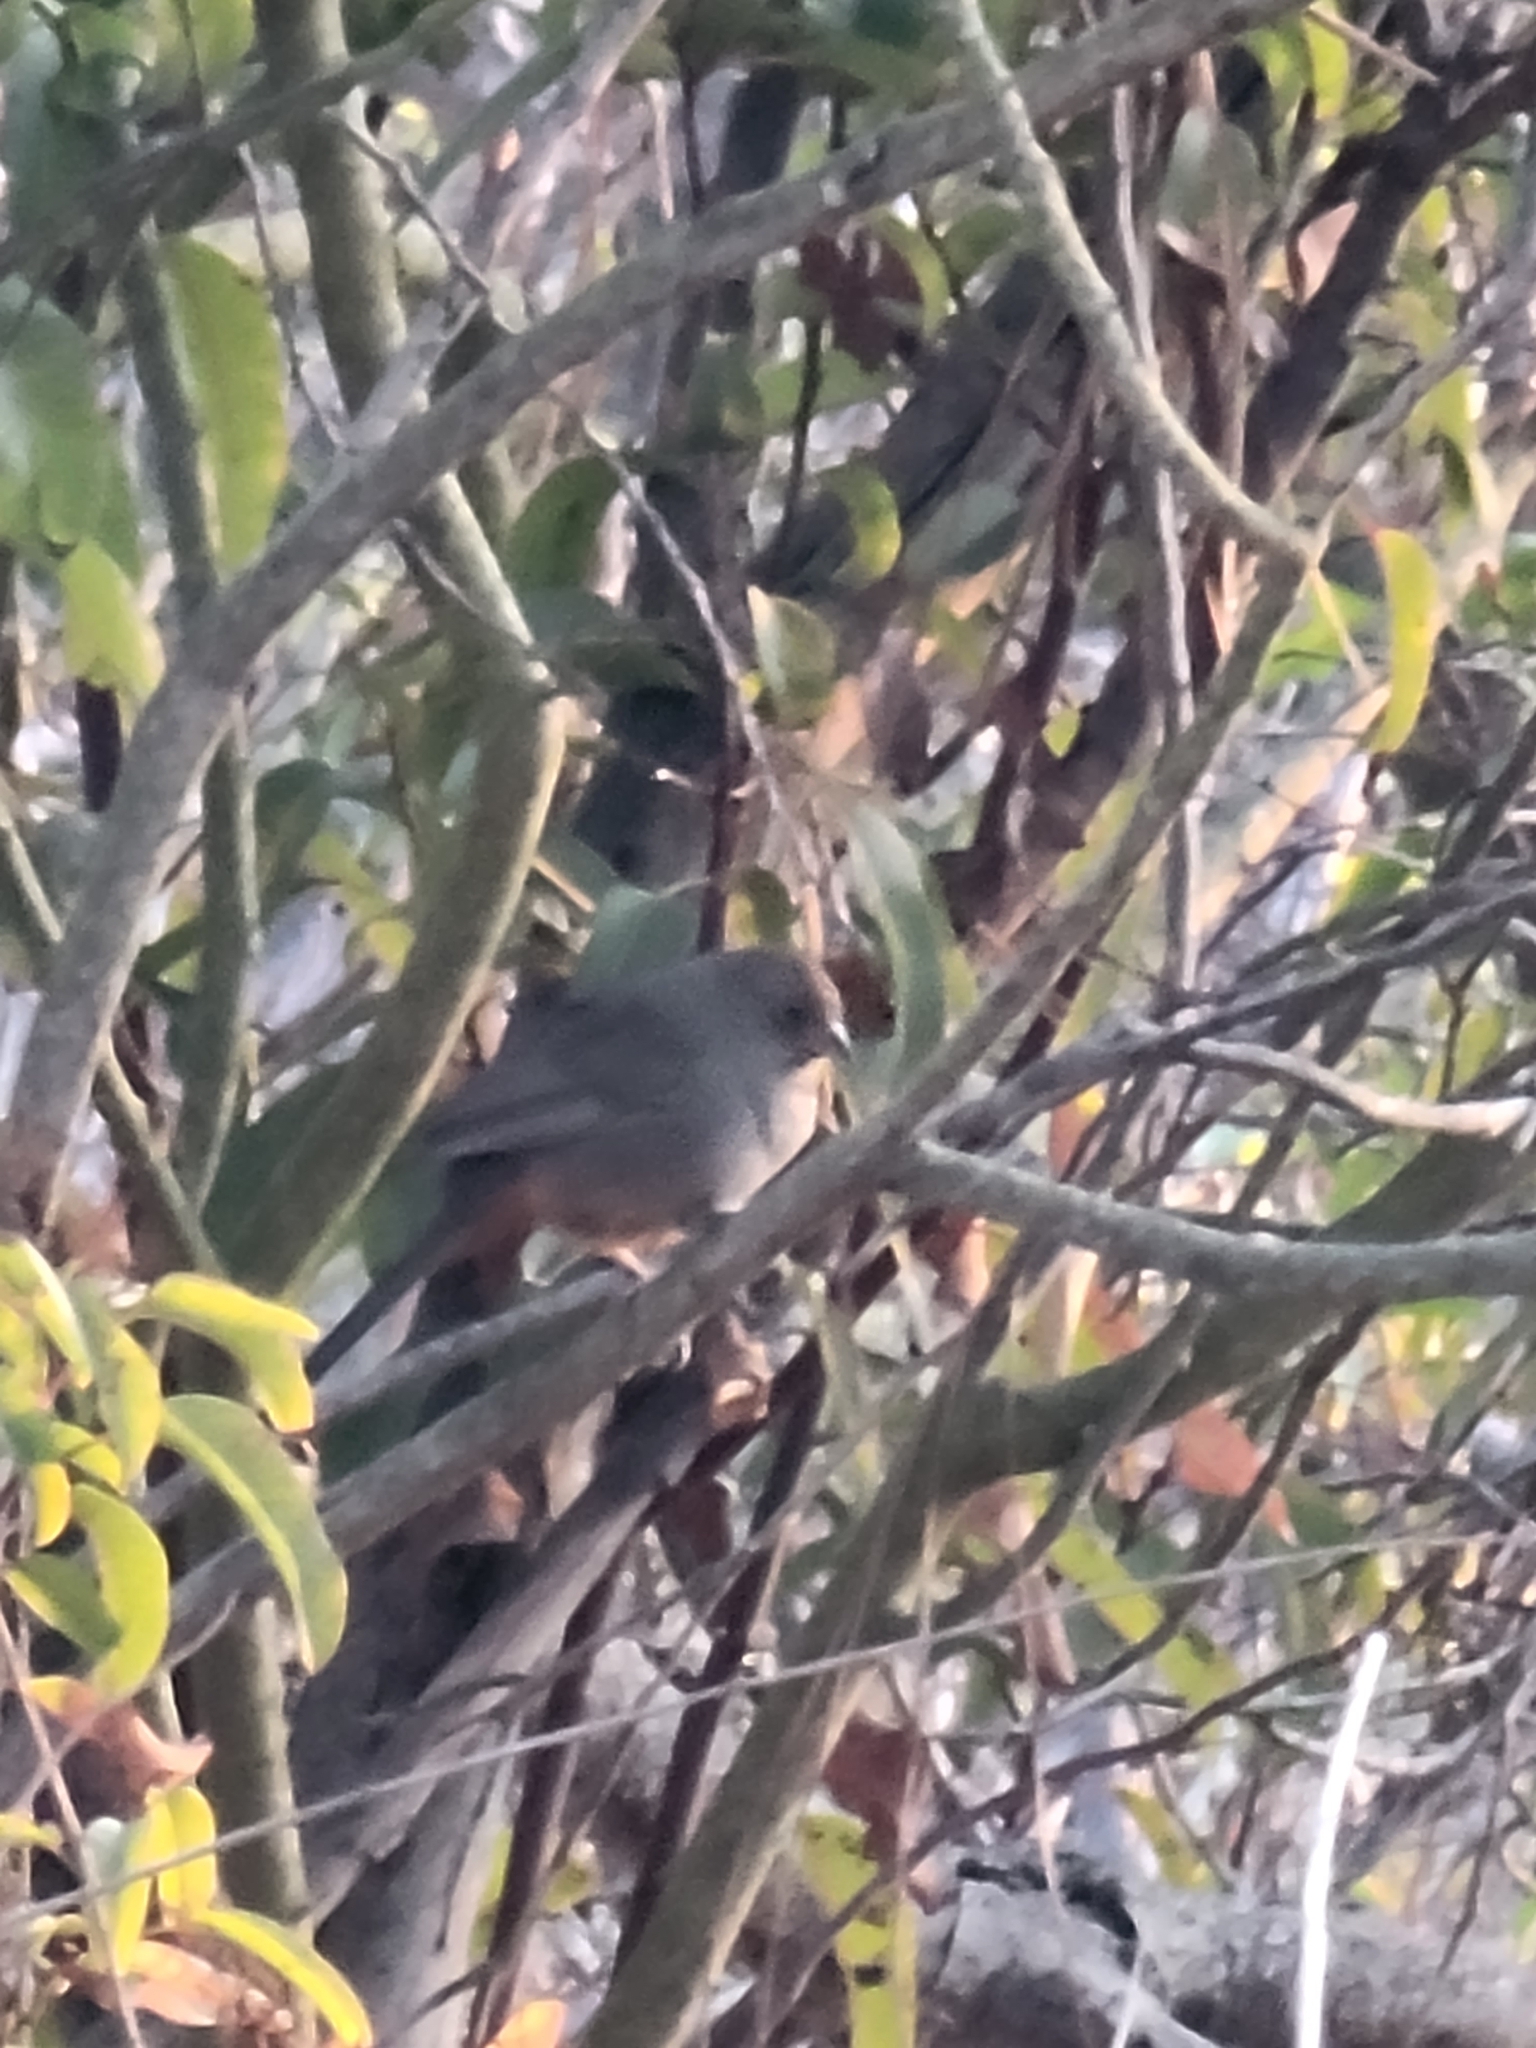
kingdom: Animalia
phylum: Chordata
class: Aves
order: Passeriformes
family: Passerellidae
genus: Melozone
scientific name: Melozone crissalis
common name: California towhee
